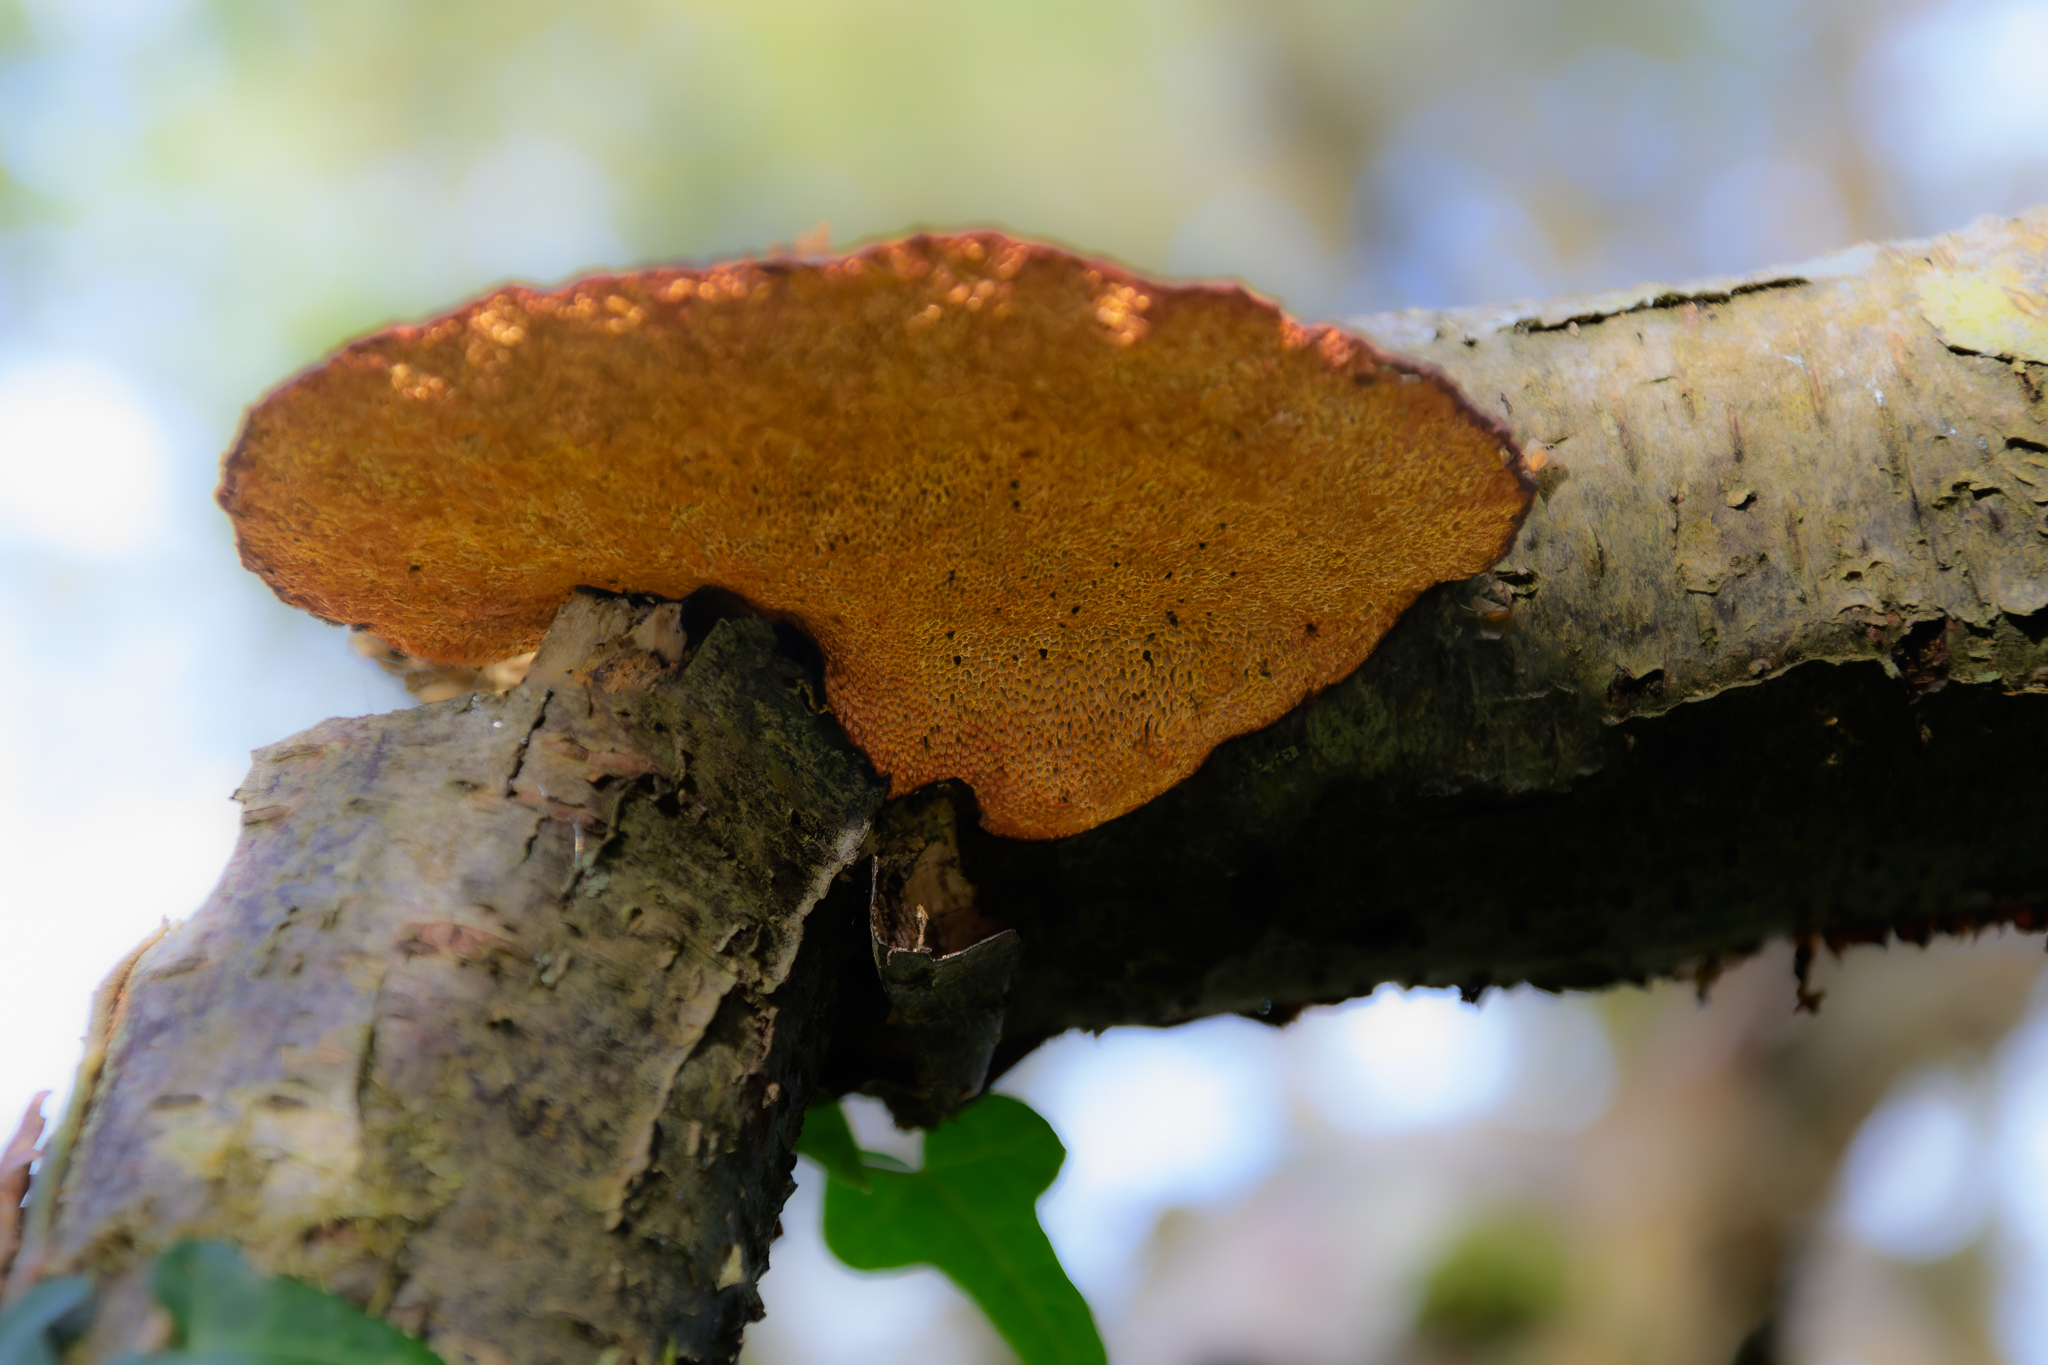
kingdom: Fungi
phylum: Basidiomycota
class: Agaricomycetes
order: Polyporales
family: Polyporaceae
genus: Daedaleopsis
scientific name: Daedaleopsis confragosa
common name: Blushing bracket
